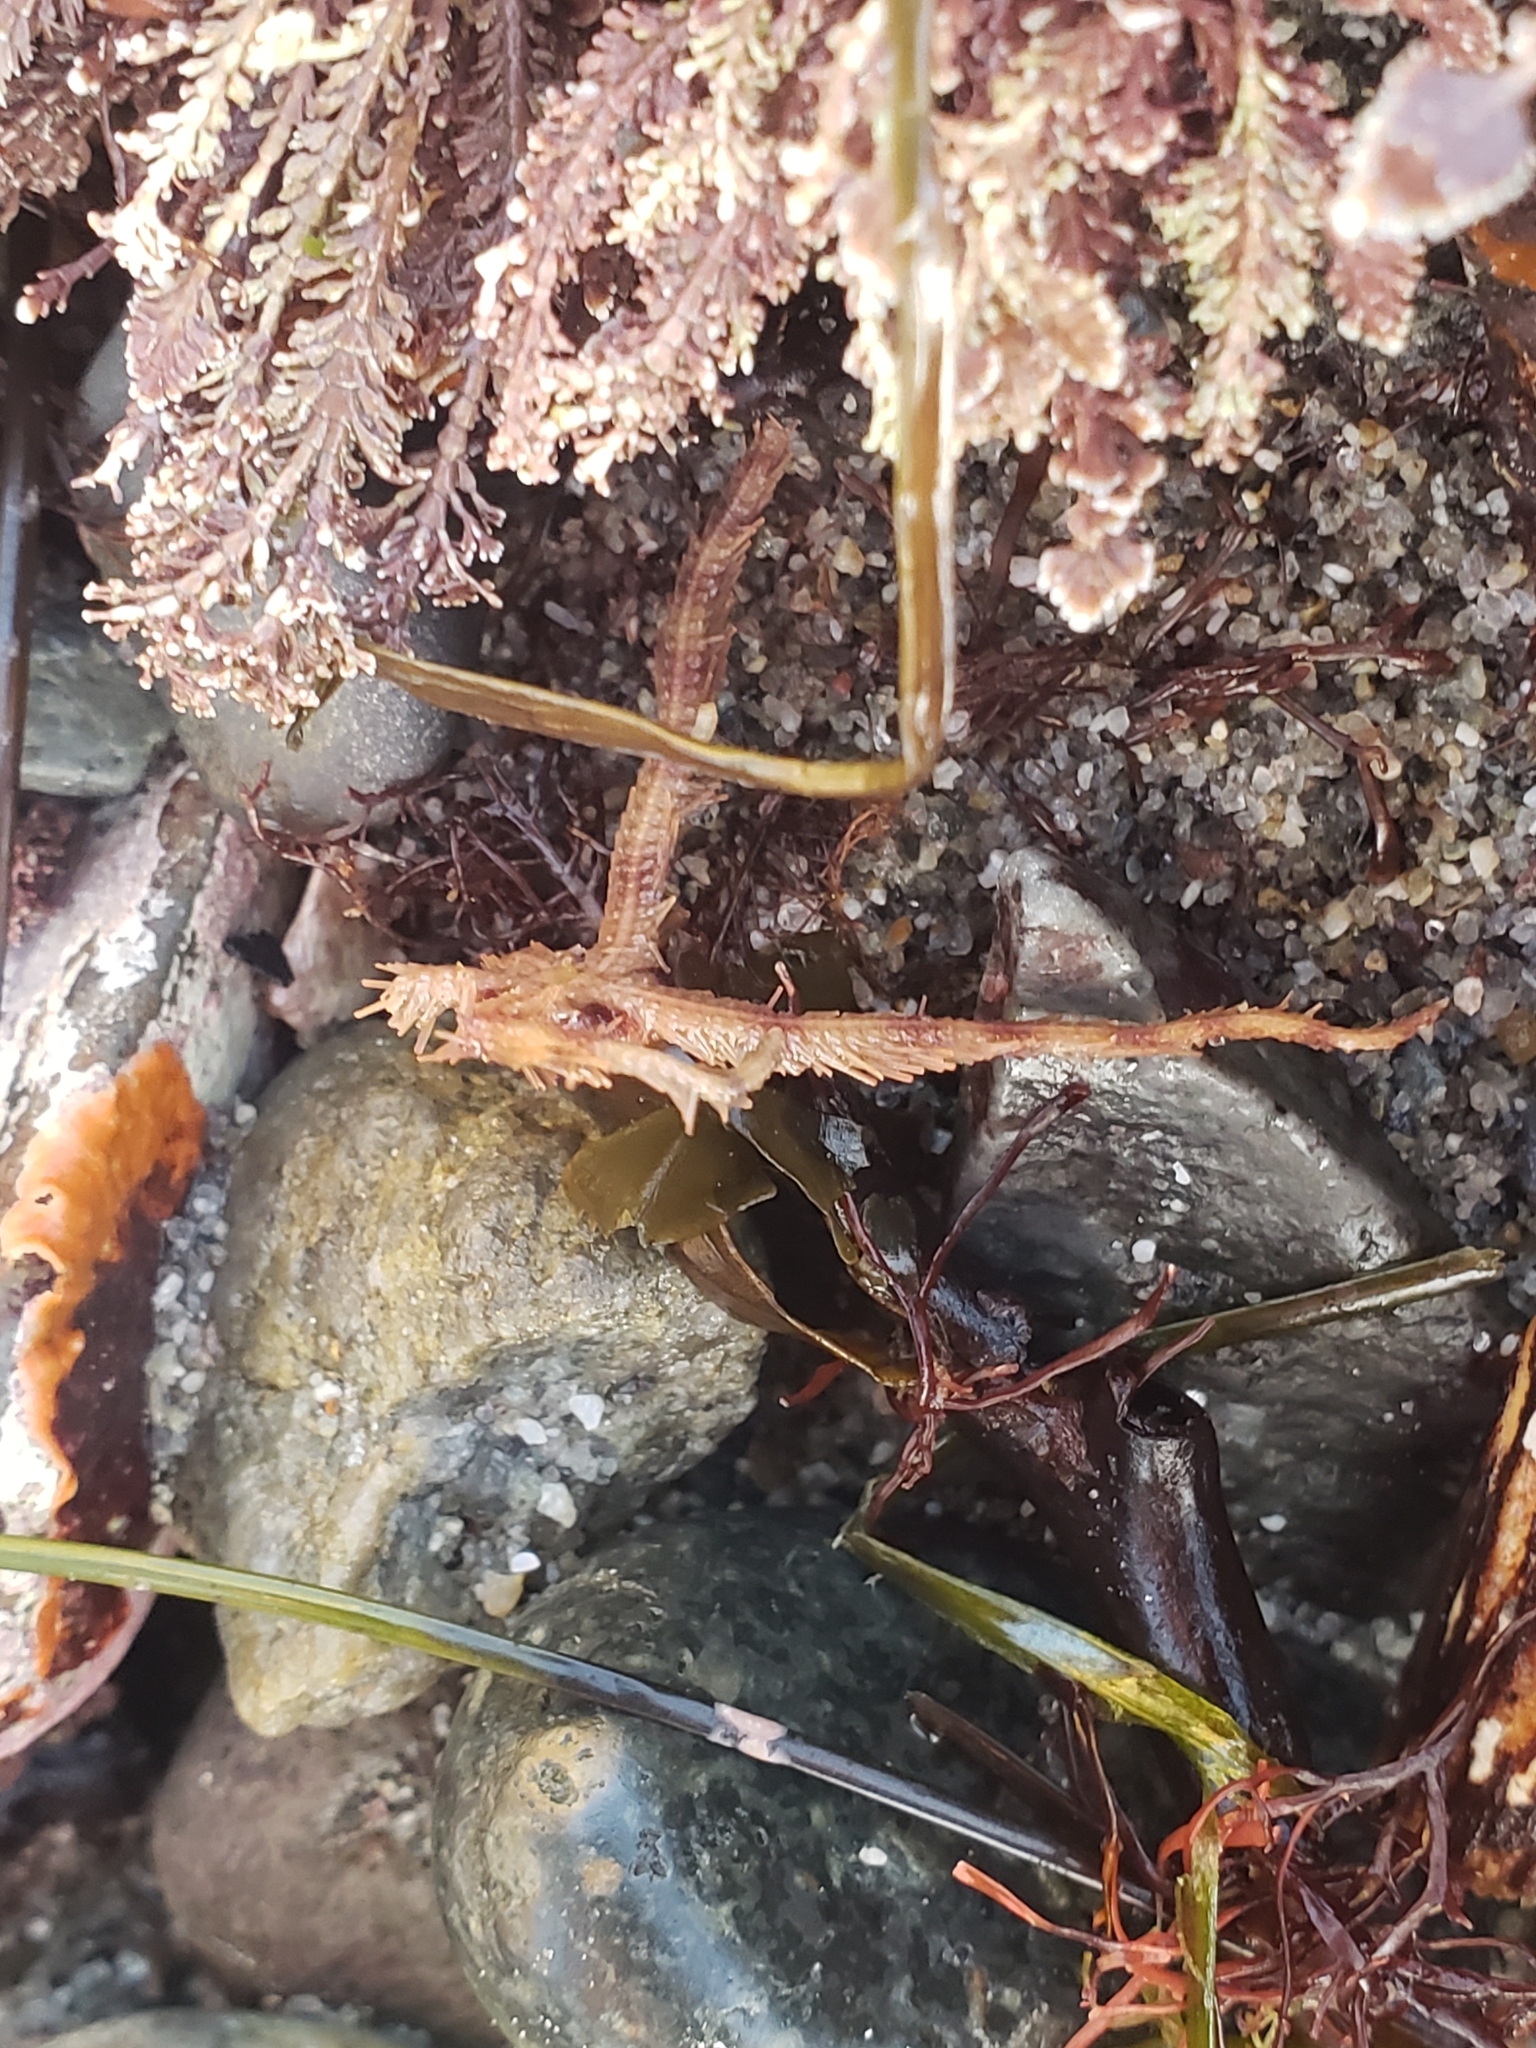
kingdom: Animalia
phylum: Echinodermata
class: Ophiuroidea
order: Ophiacanthida
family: Ophiopteridae
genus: Ophiopteris
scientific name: Ophiopteris papillosa
